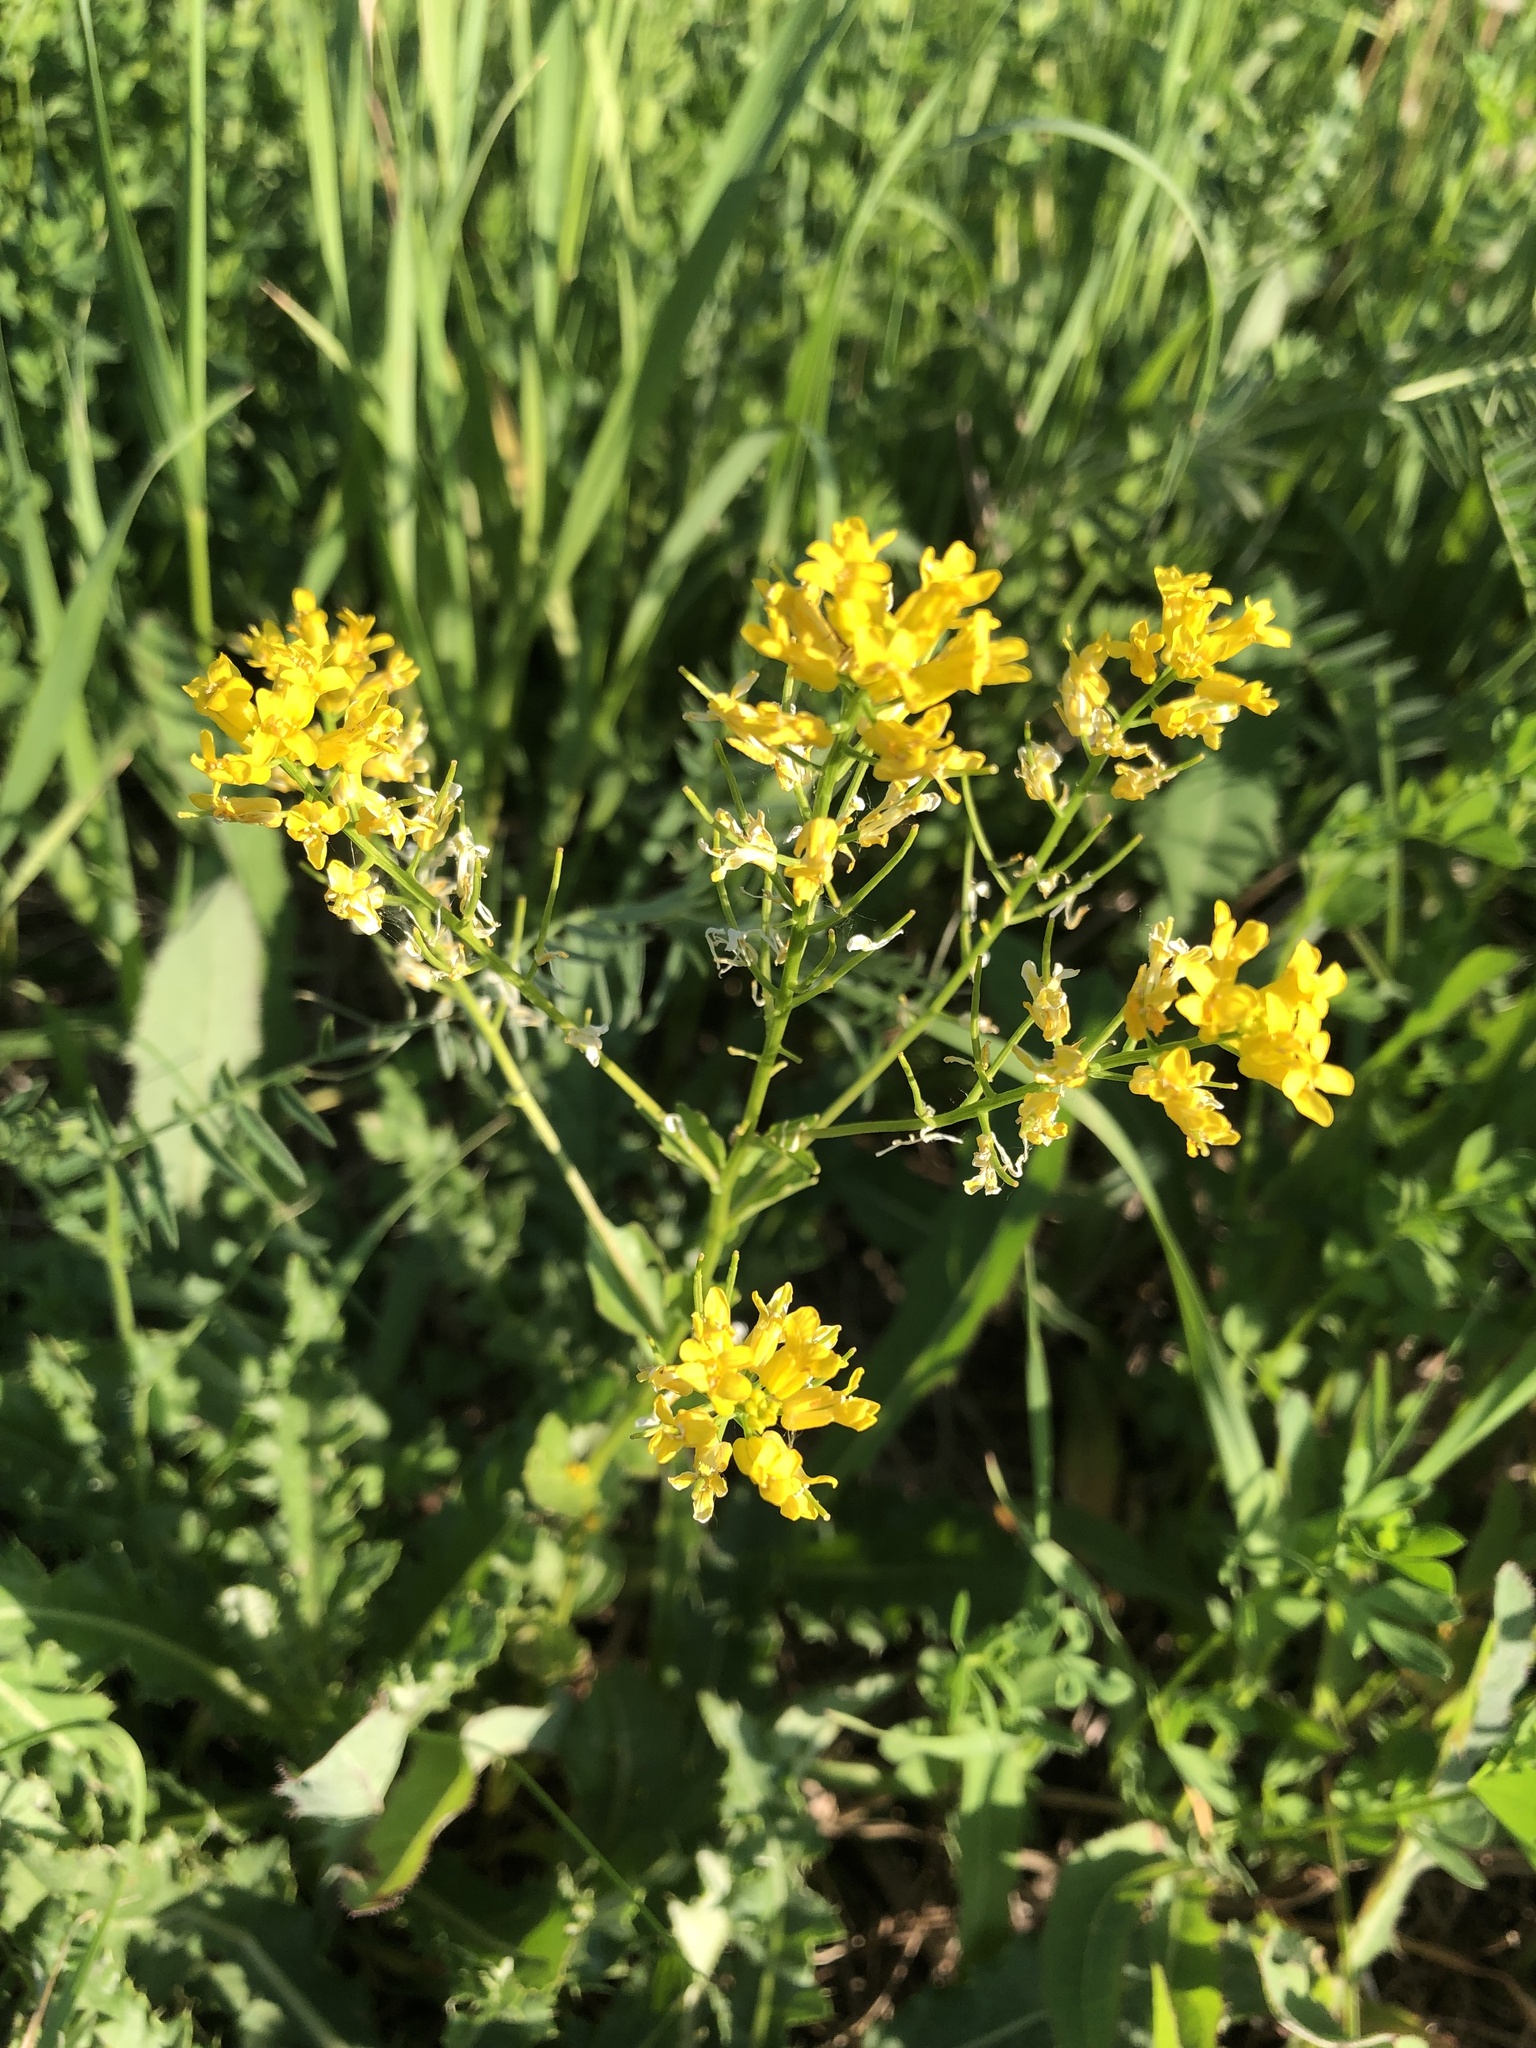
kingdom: Plantae
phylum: Tracheophyta
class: Magnoliopsida
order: Brassicales
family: Brassicaceae
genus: Barbarea
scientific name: Barbarea vulgaris
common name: Cressy-greens
